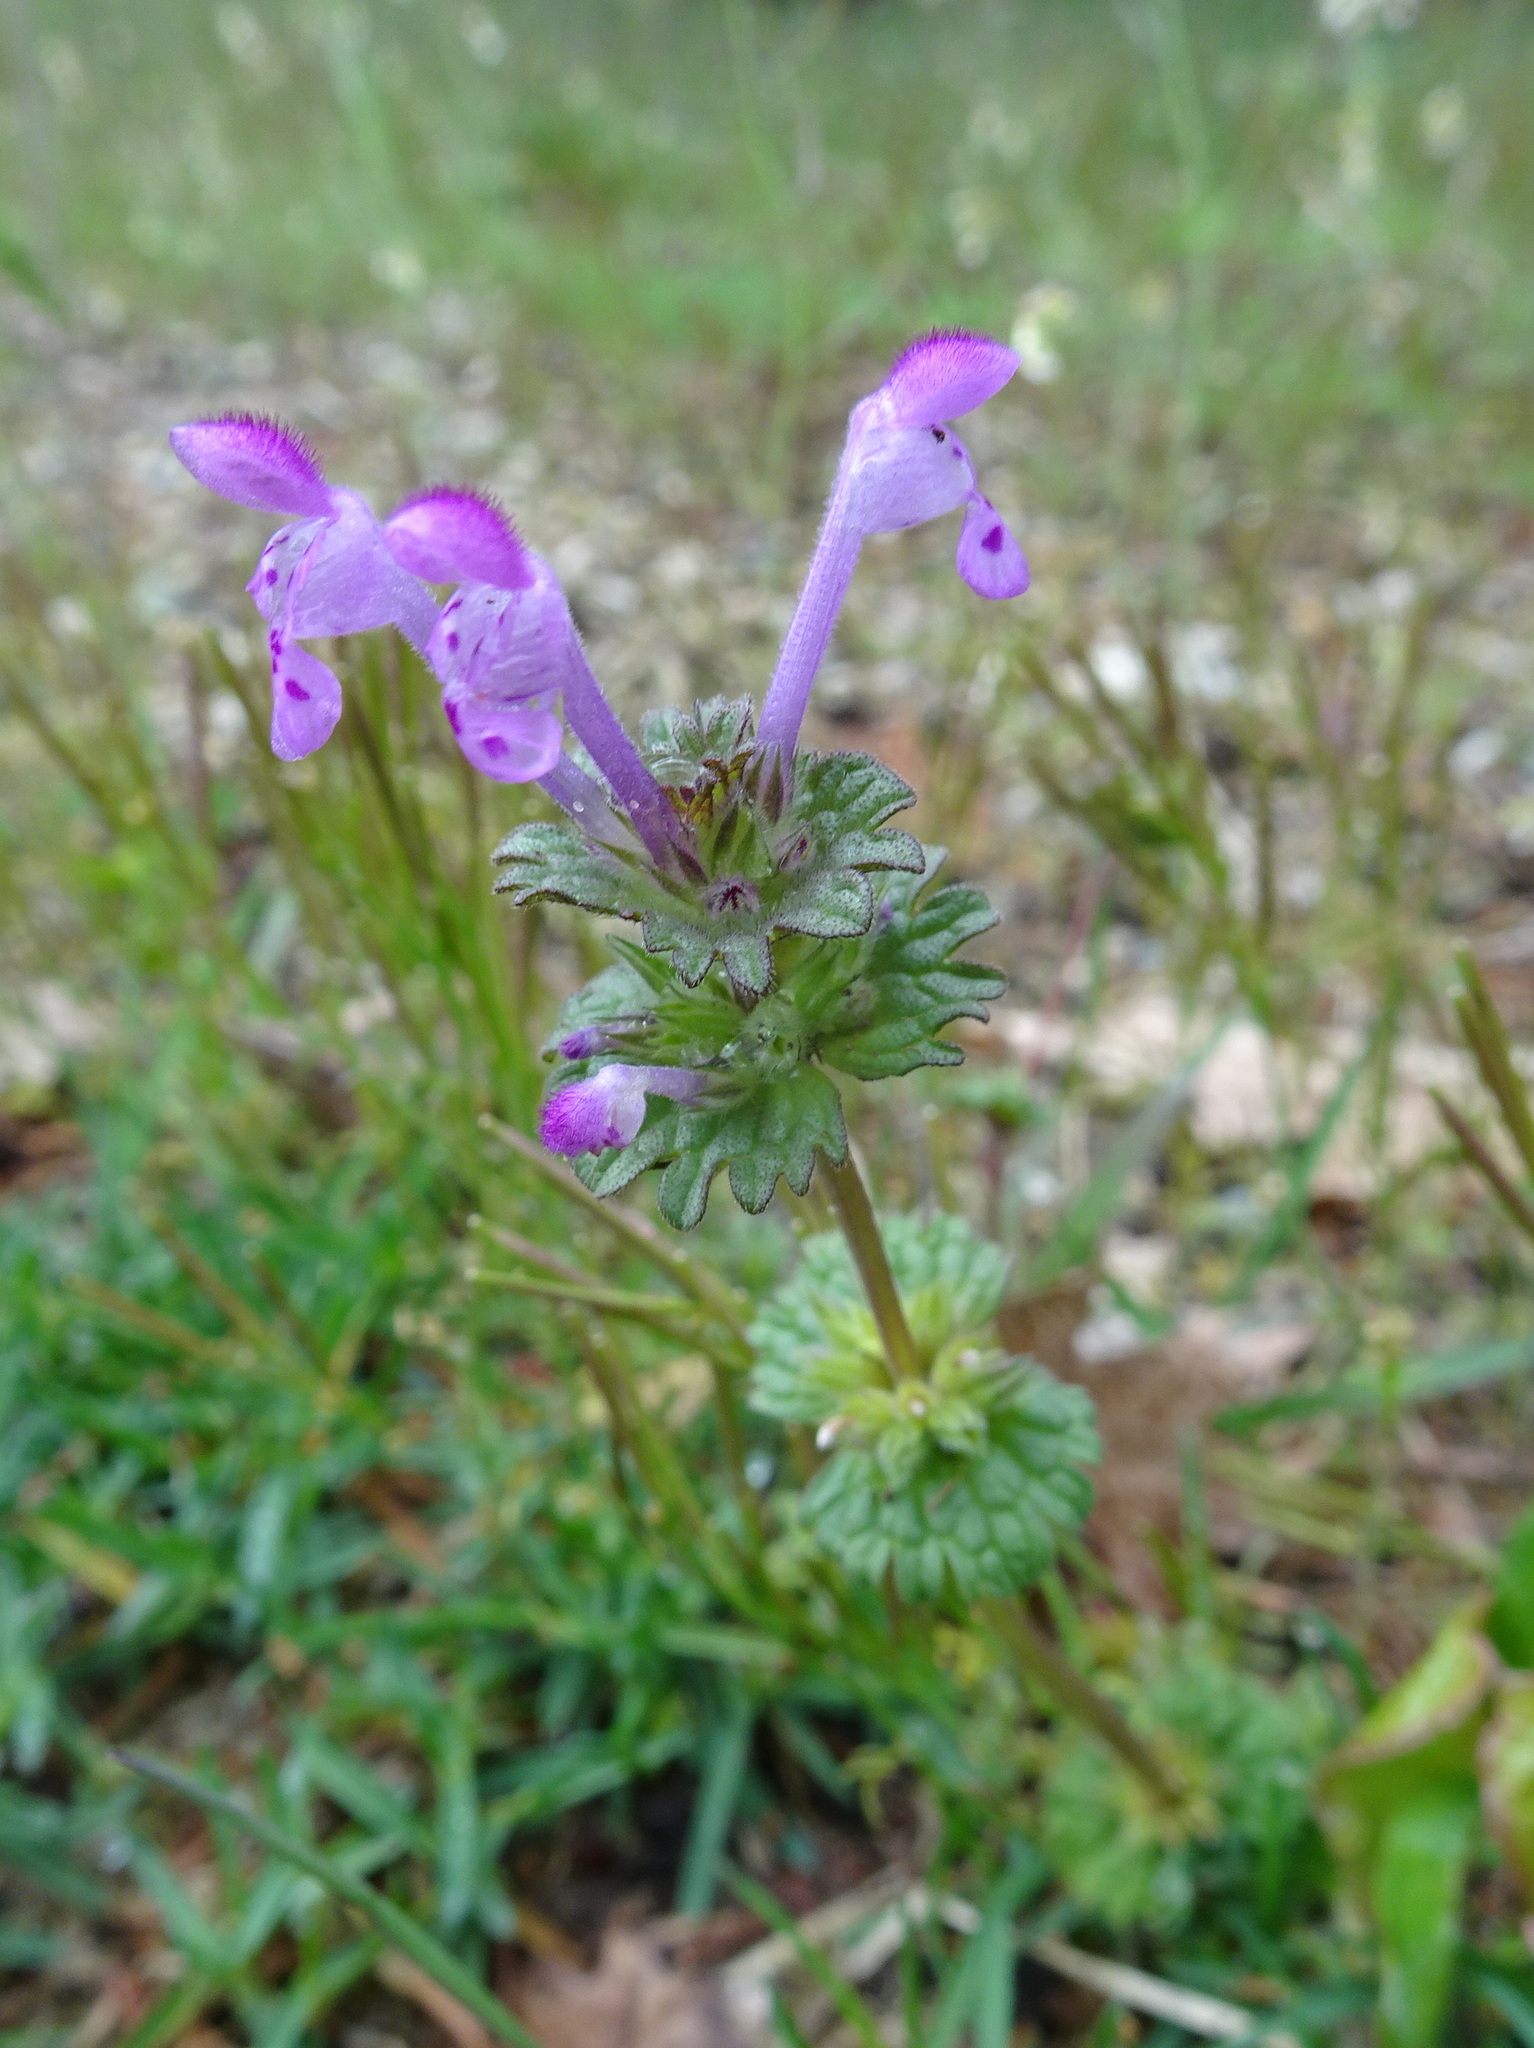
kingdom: Plantae
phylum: Tracheophyta
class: Magnoliopsida
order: Lamiales
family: Lamiaceae
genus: Lamium
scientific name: Lamium amplexicaule
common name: Henbit dead-nettle
